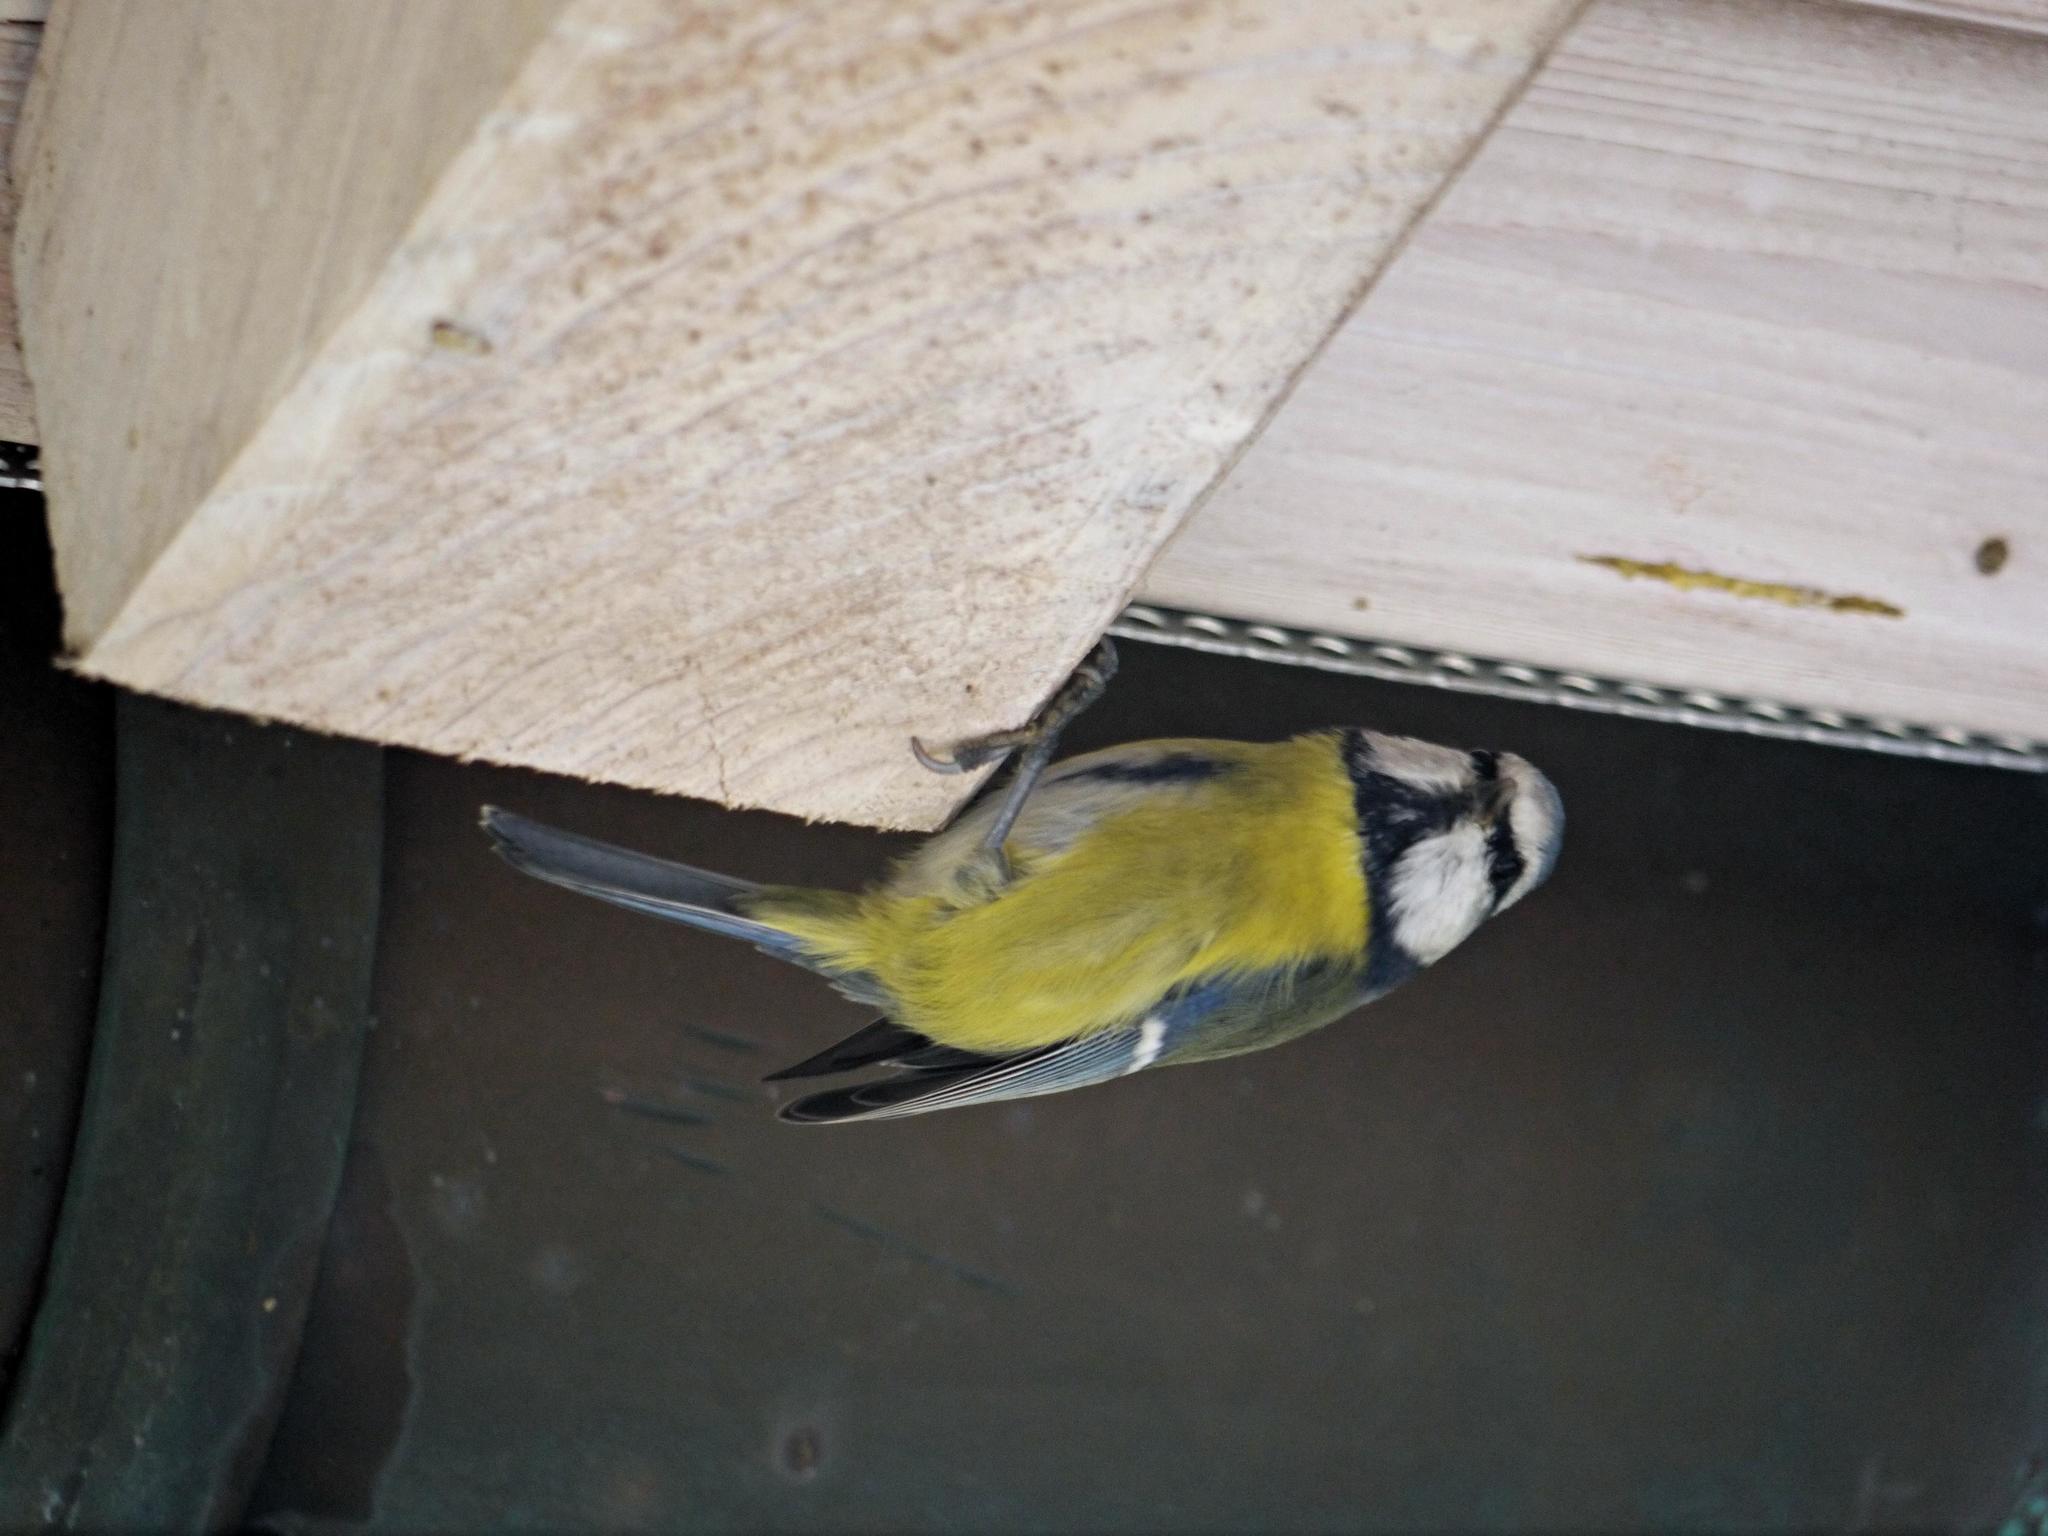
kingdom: Animalia
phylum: Chordata
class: Aves
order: Passeriformes
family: Paridae
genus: Cyanistes
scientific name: Cyanistes caeruleus
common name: Eurasian blue tit
